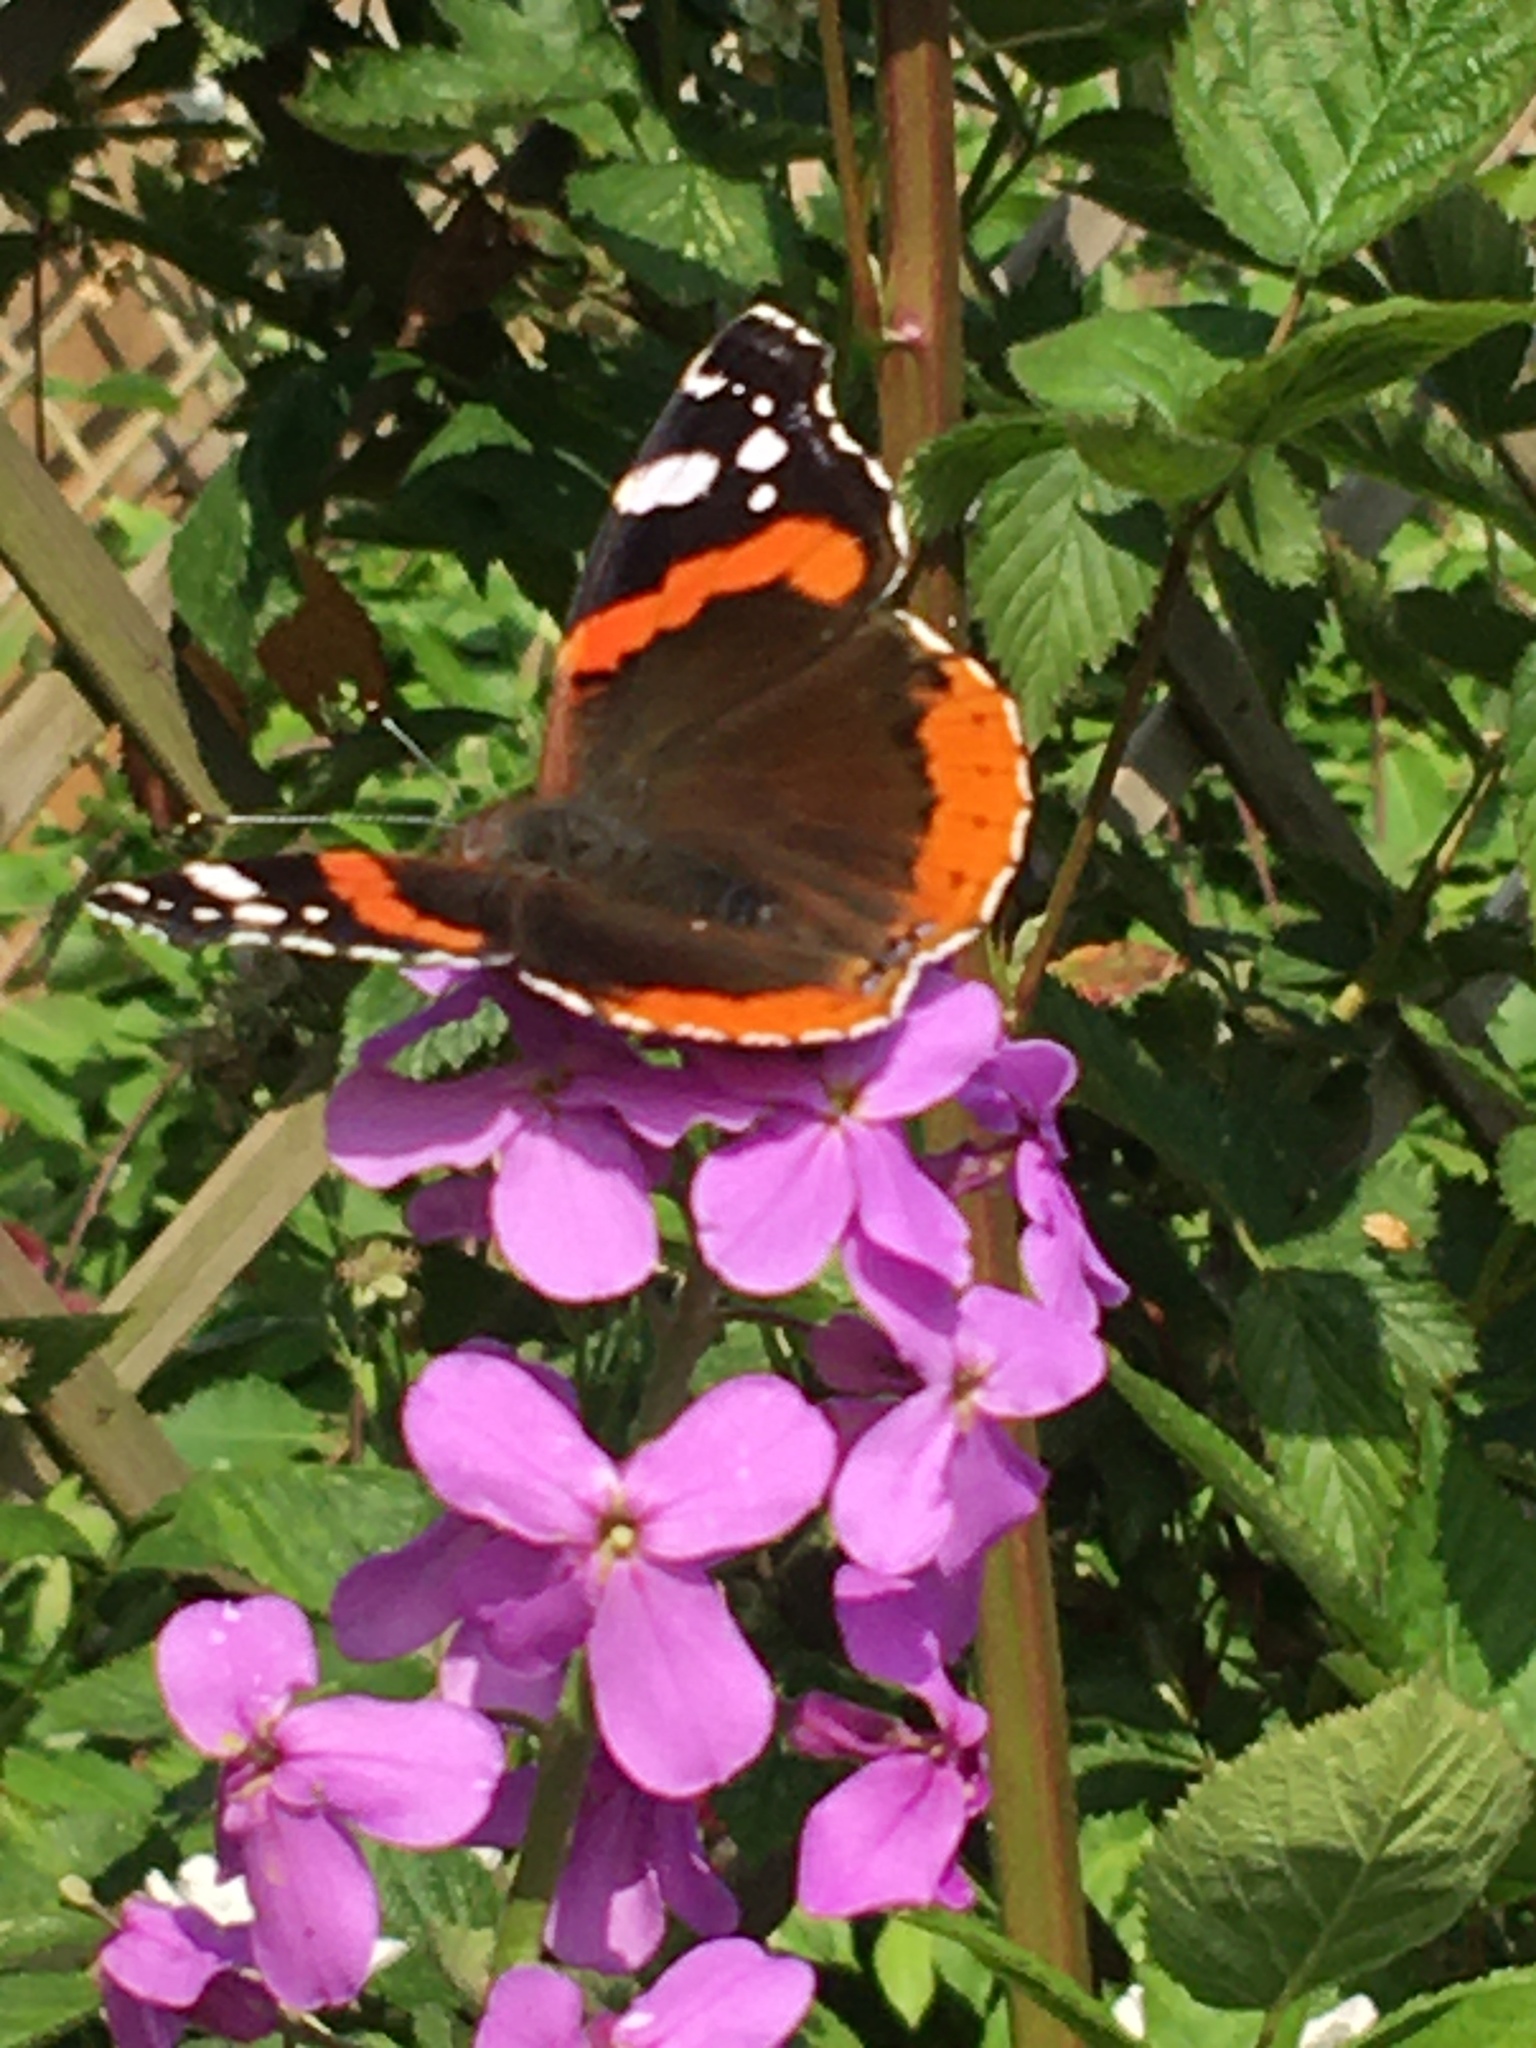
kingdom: Animalia
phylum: Arthropoda
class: Insecta
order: Lepidoptera
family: Nymphalidae
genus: Vanessa
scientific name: Vanessa atalanta
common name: Red admiral
